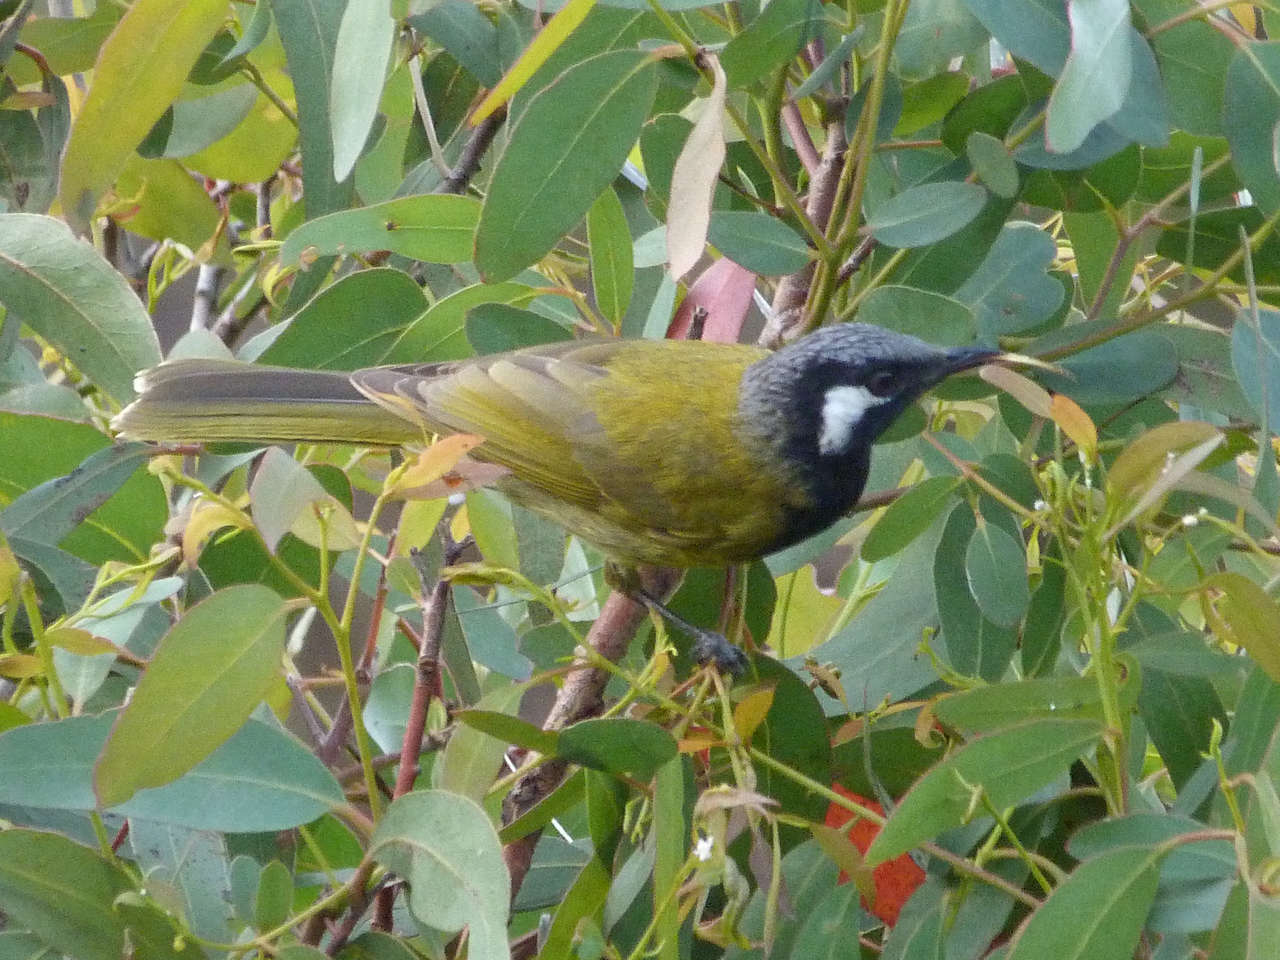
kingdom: Animalia
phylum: Chordata
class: Aves
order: Passeriformes
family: Meliphagidae
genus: Nesoptilotis
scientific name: Nesoptilotis leucotis
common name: White-eared honeyeater
